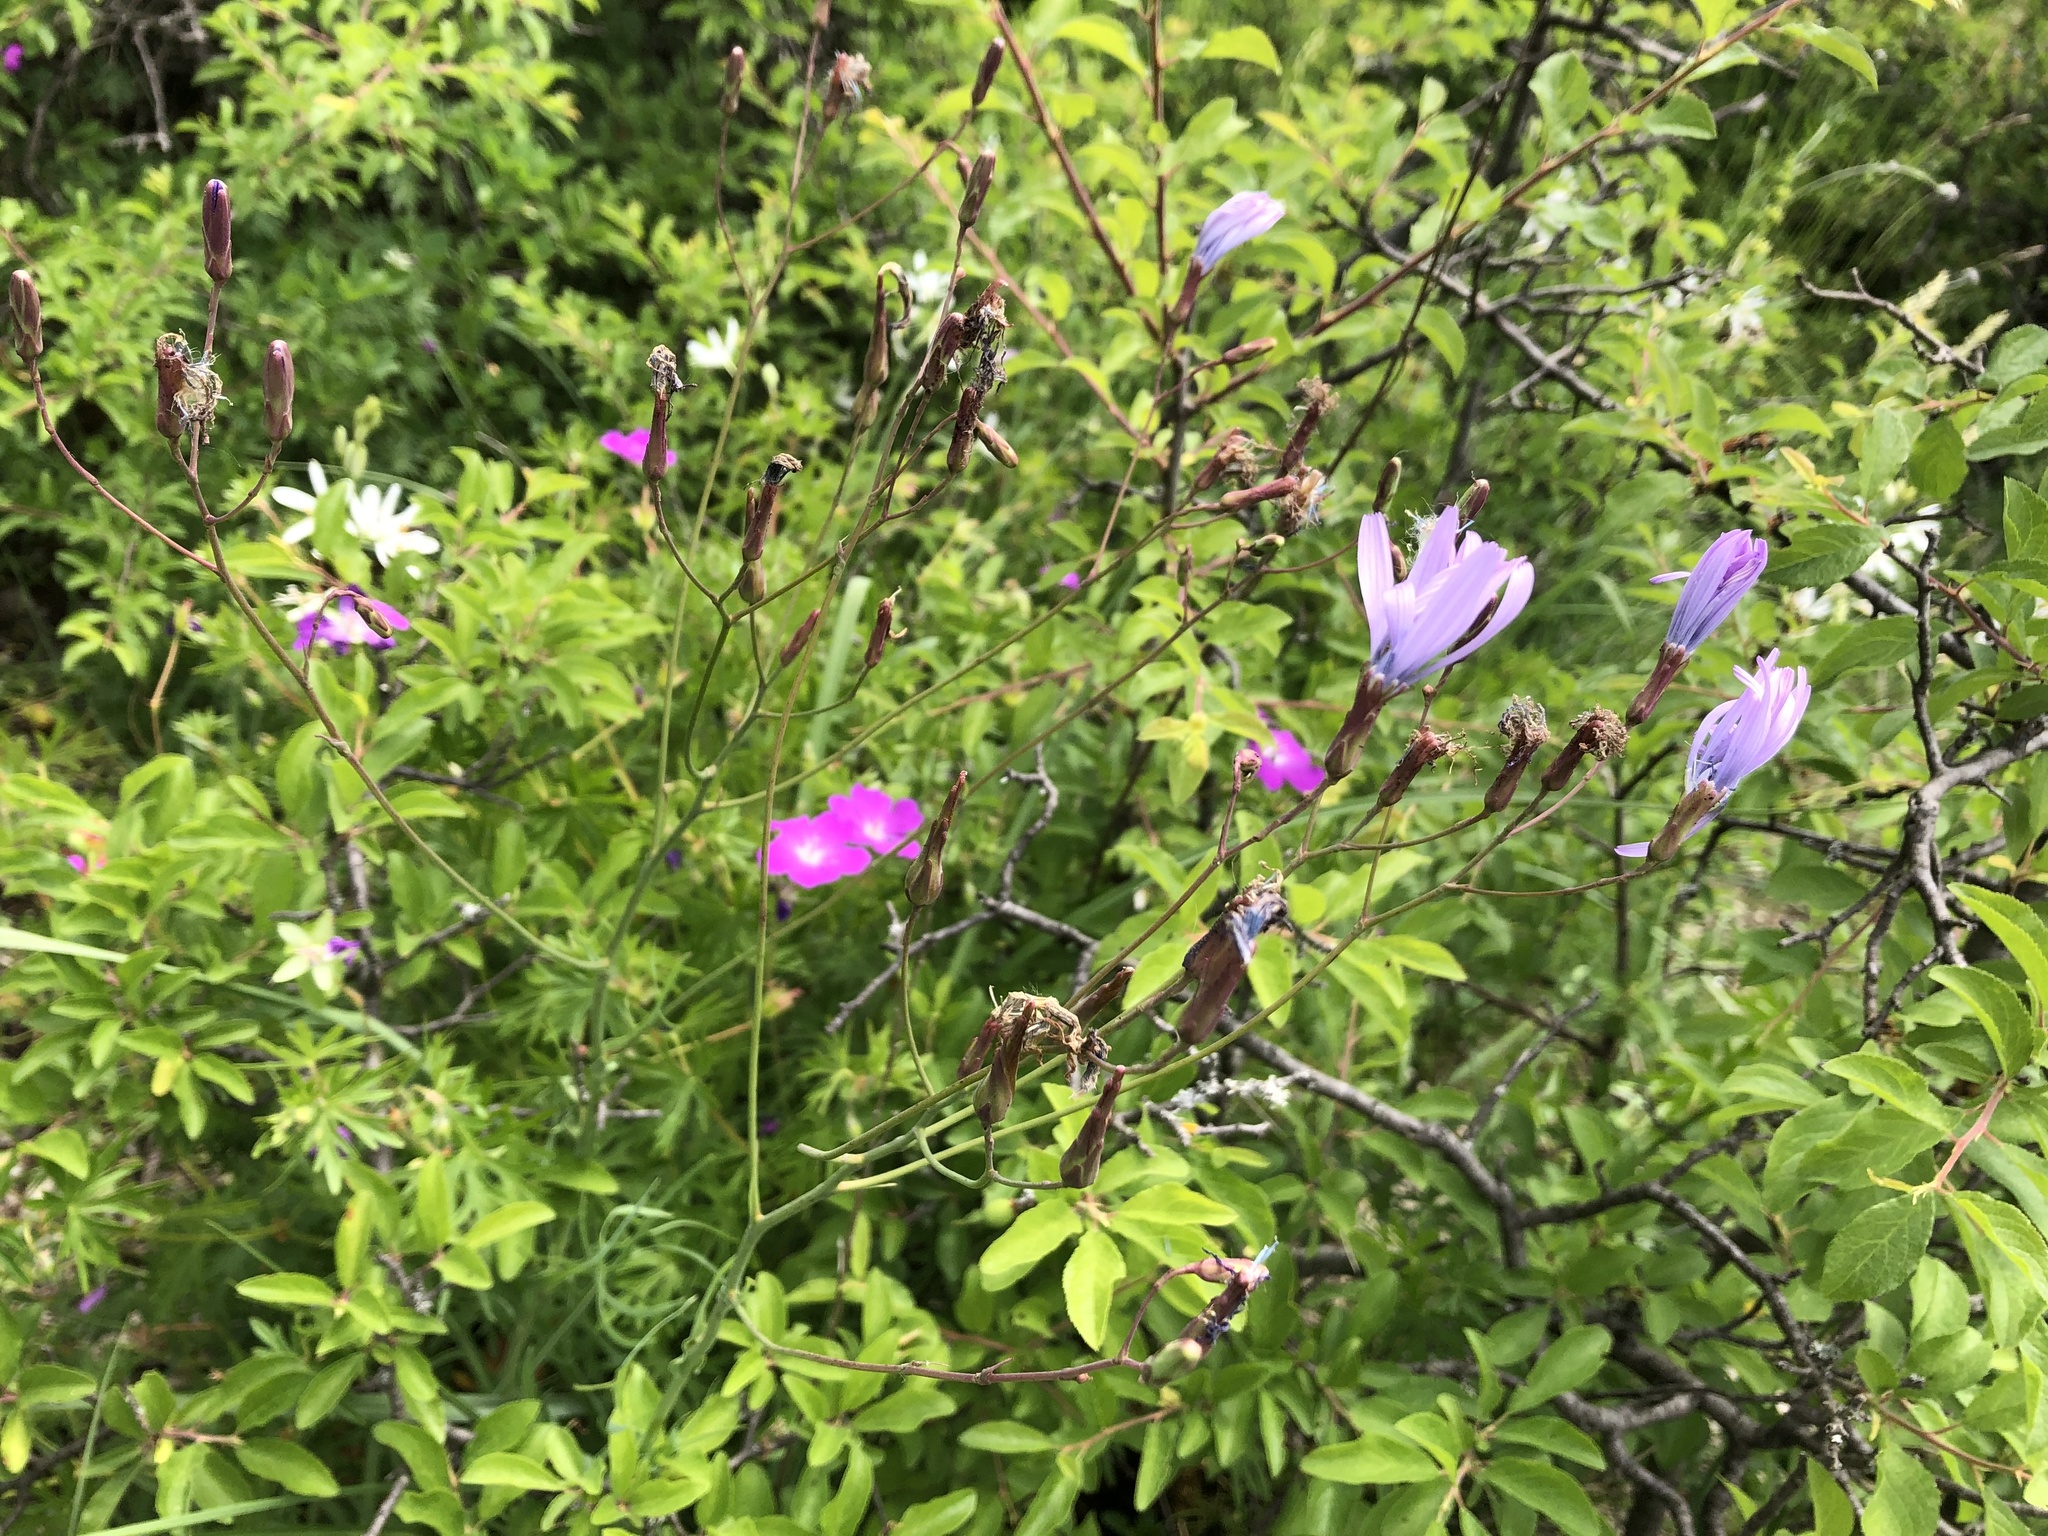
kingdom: Plantae
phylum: Tracheophyta
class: Magnoliopsida
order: Asterales
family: Asteraceae
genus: Lactuca
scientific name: Lactuca perennis
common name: Mountain lettuce
